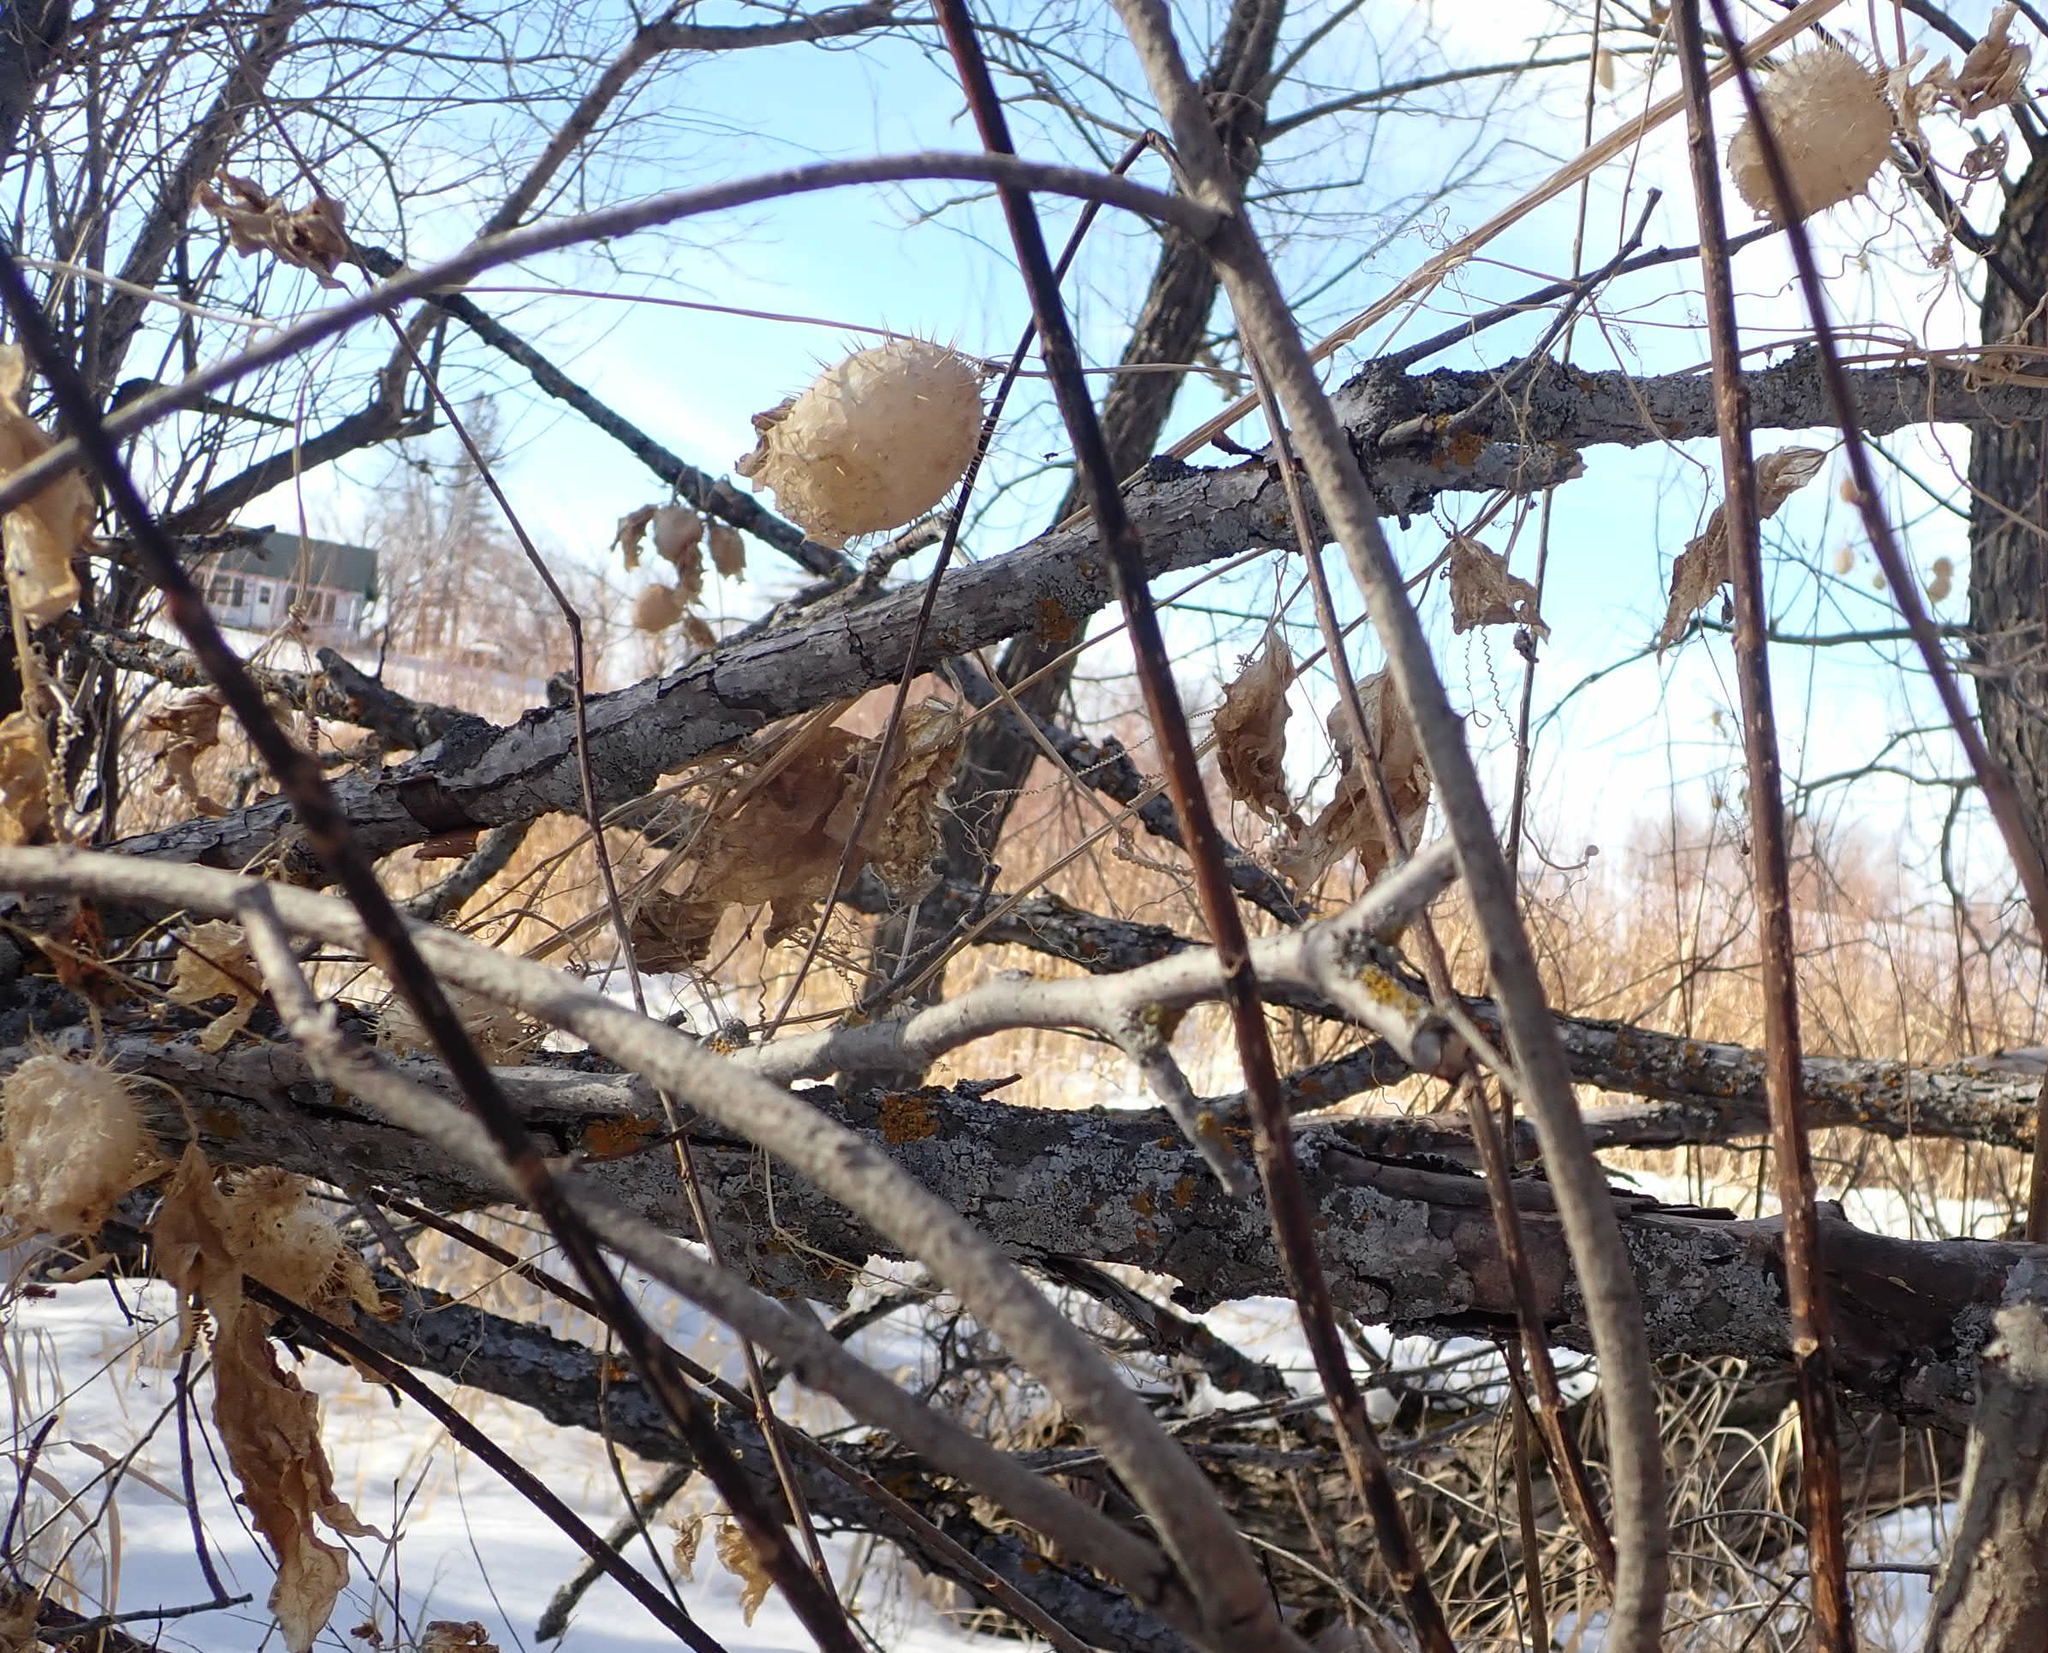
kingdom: Plantae
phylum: Tracheophyta
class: Magnoliopsida
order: Cucurbitales
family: Cucurbitaceae
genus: Echinocystis
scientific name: Echinocystis lobata
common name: Wild cucumber
